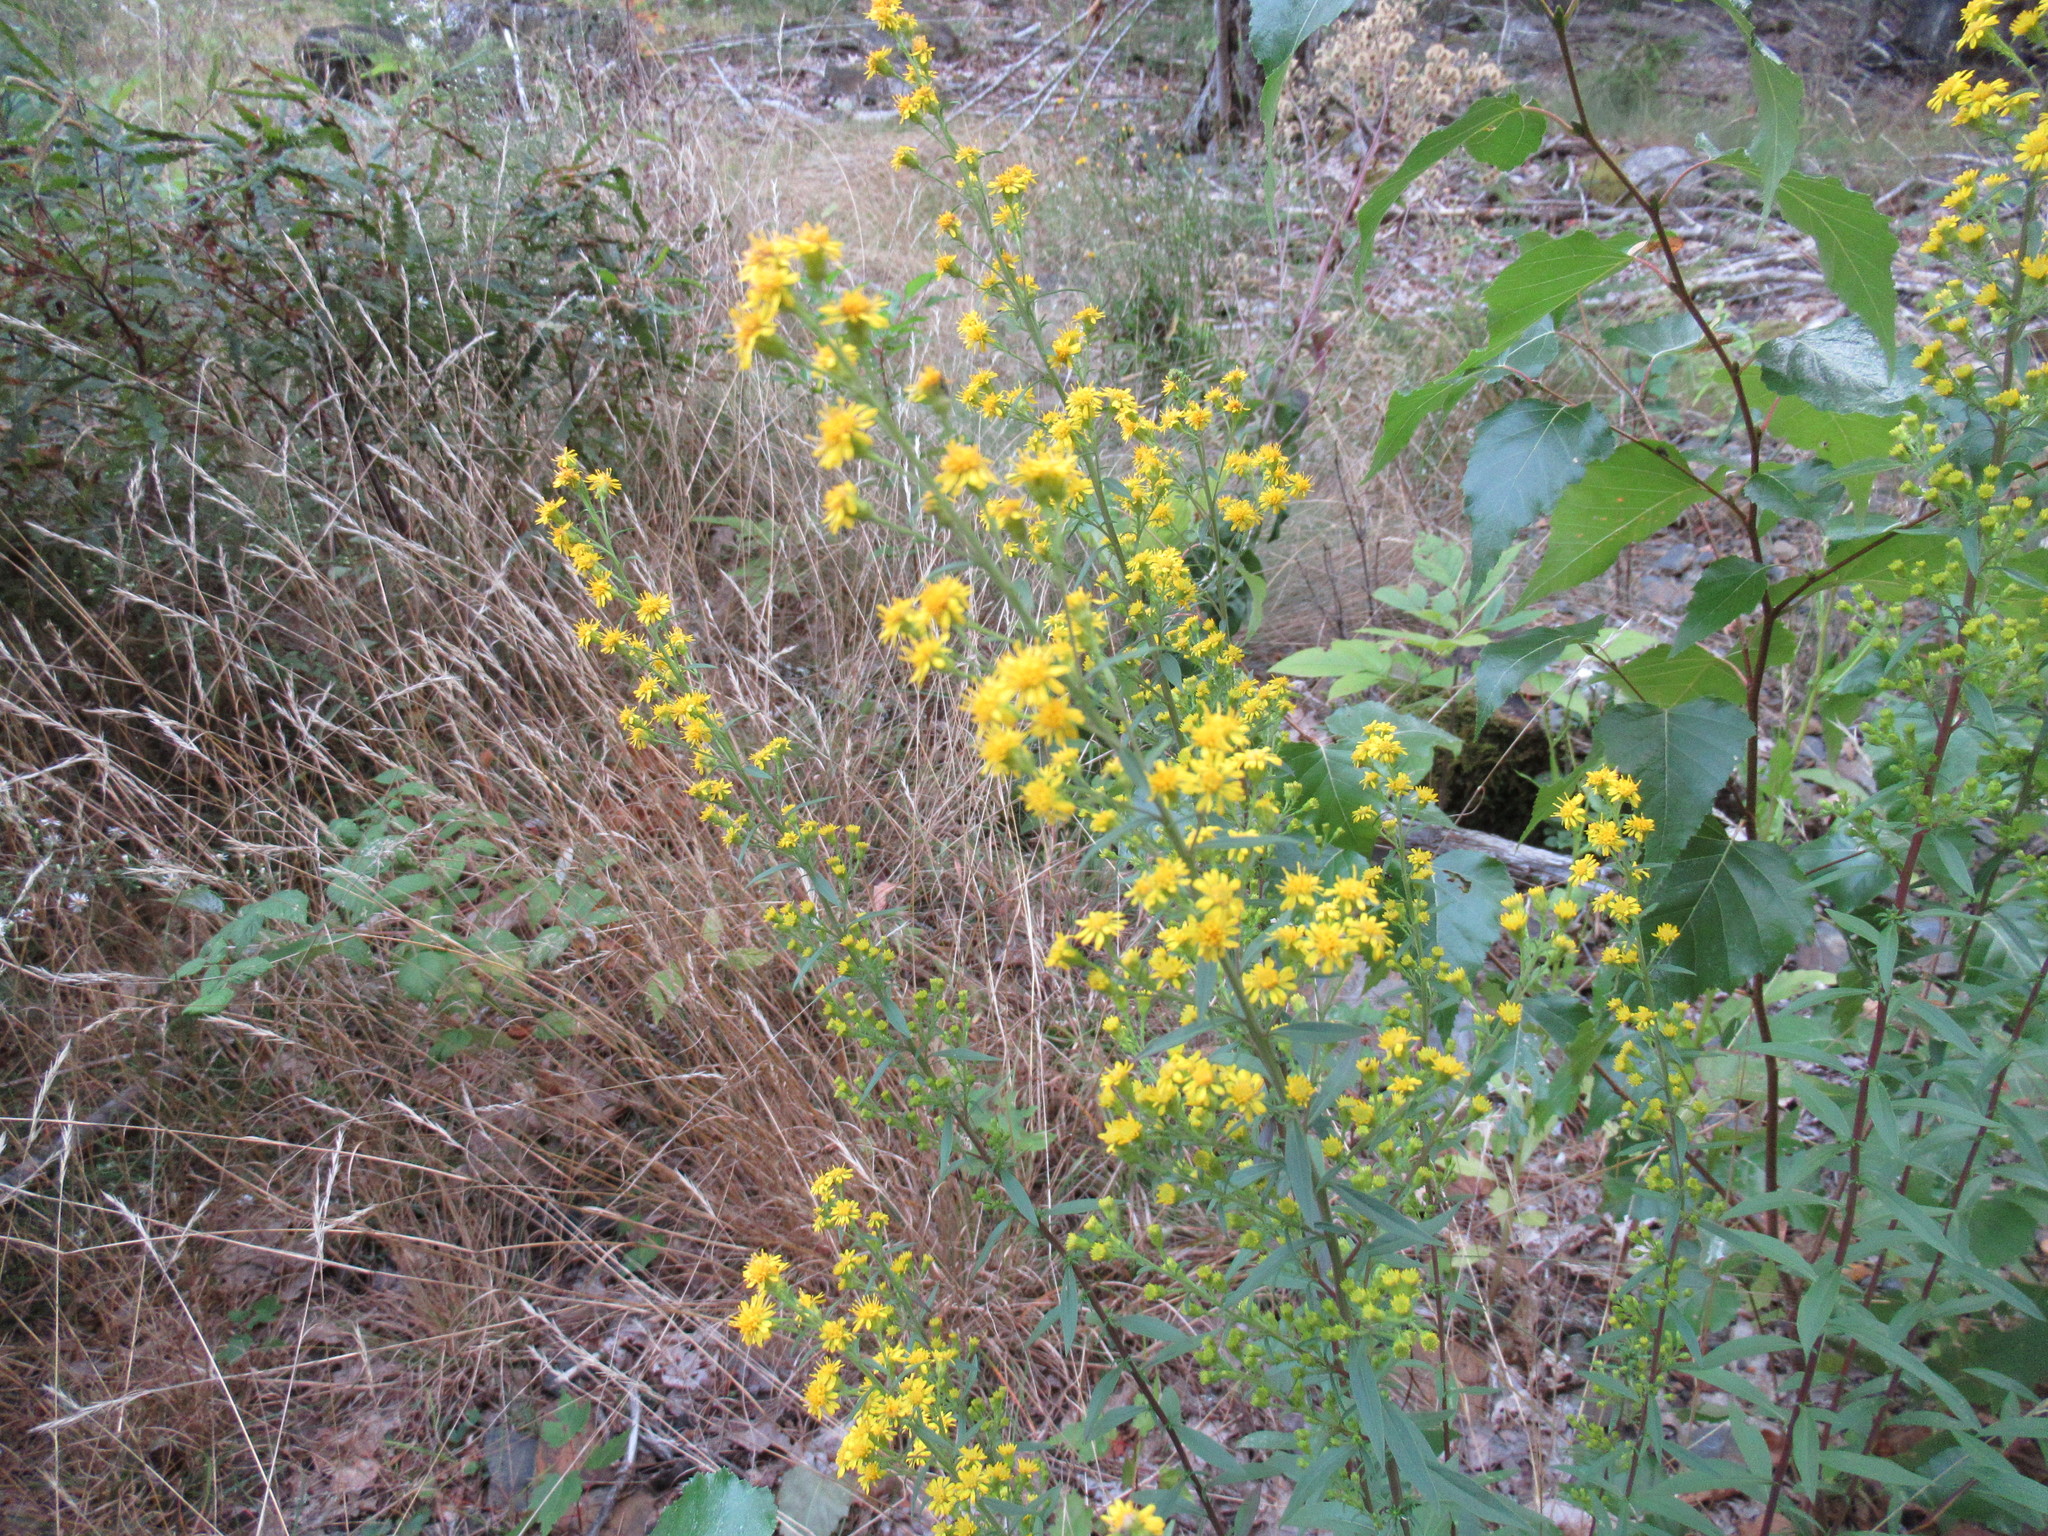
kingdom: Plantae
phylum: Tracheophyta
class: Magnoliopsida
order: Asterales
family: Asteraceae
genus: Solidago
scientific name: Solidago puberula
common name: Downy goldenrod
